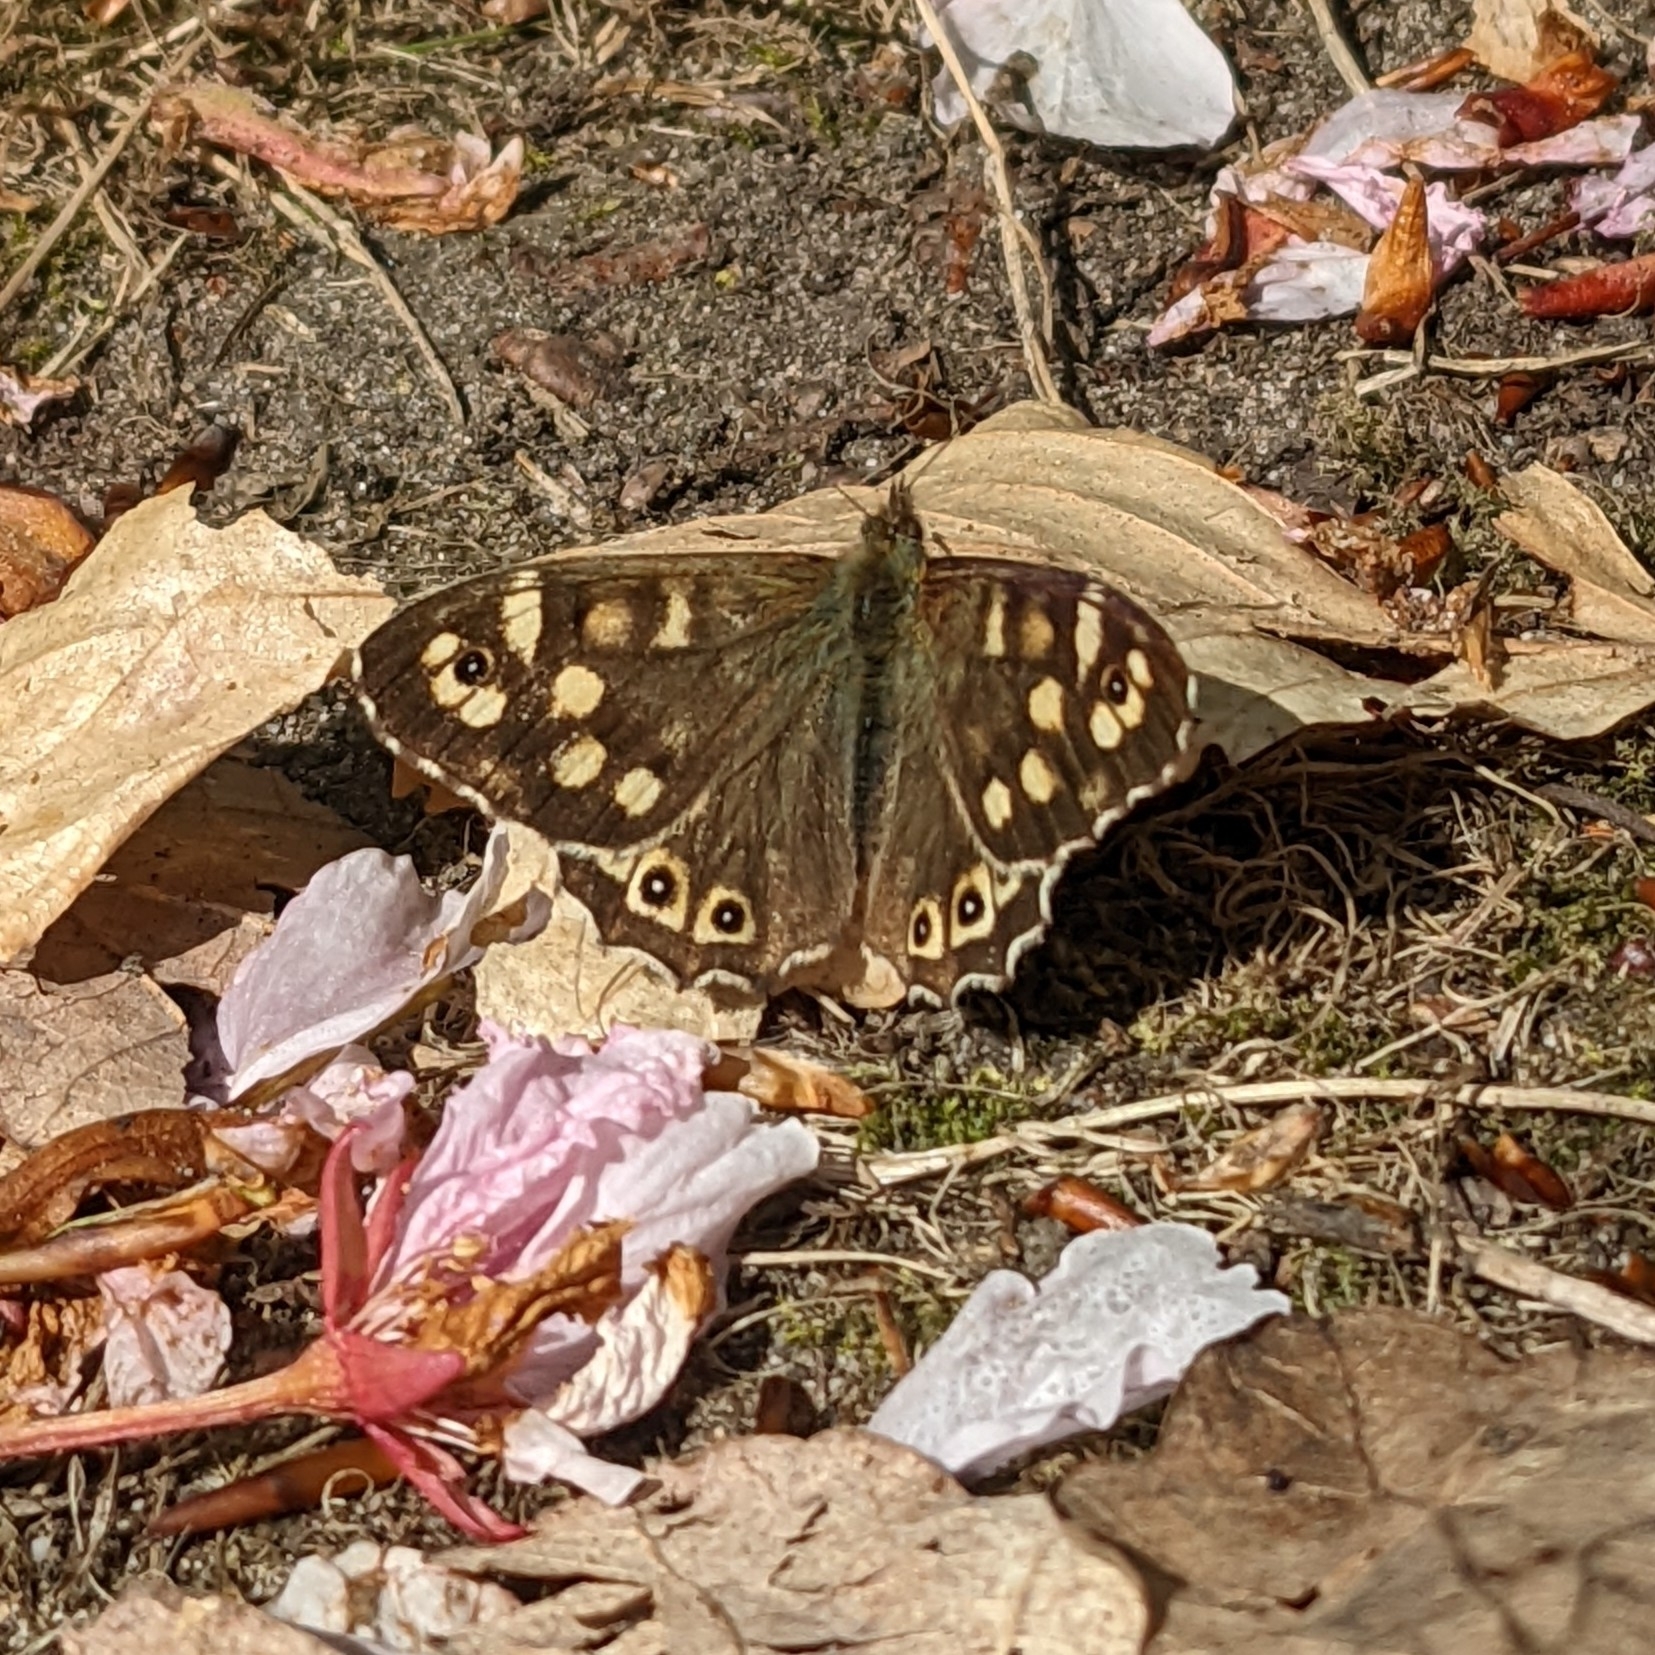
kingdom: Animalia
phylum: Arthropoda
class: Insecta
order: Lepidoptera
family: Nymphalidae
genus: Pararge
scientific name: Pararge aegeria
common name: Speckled wood
